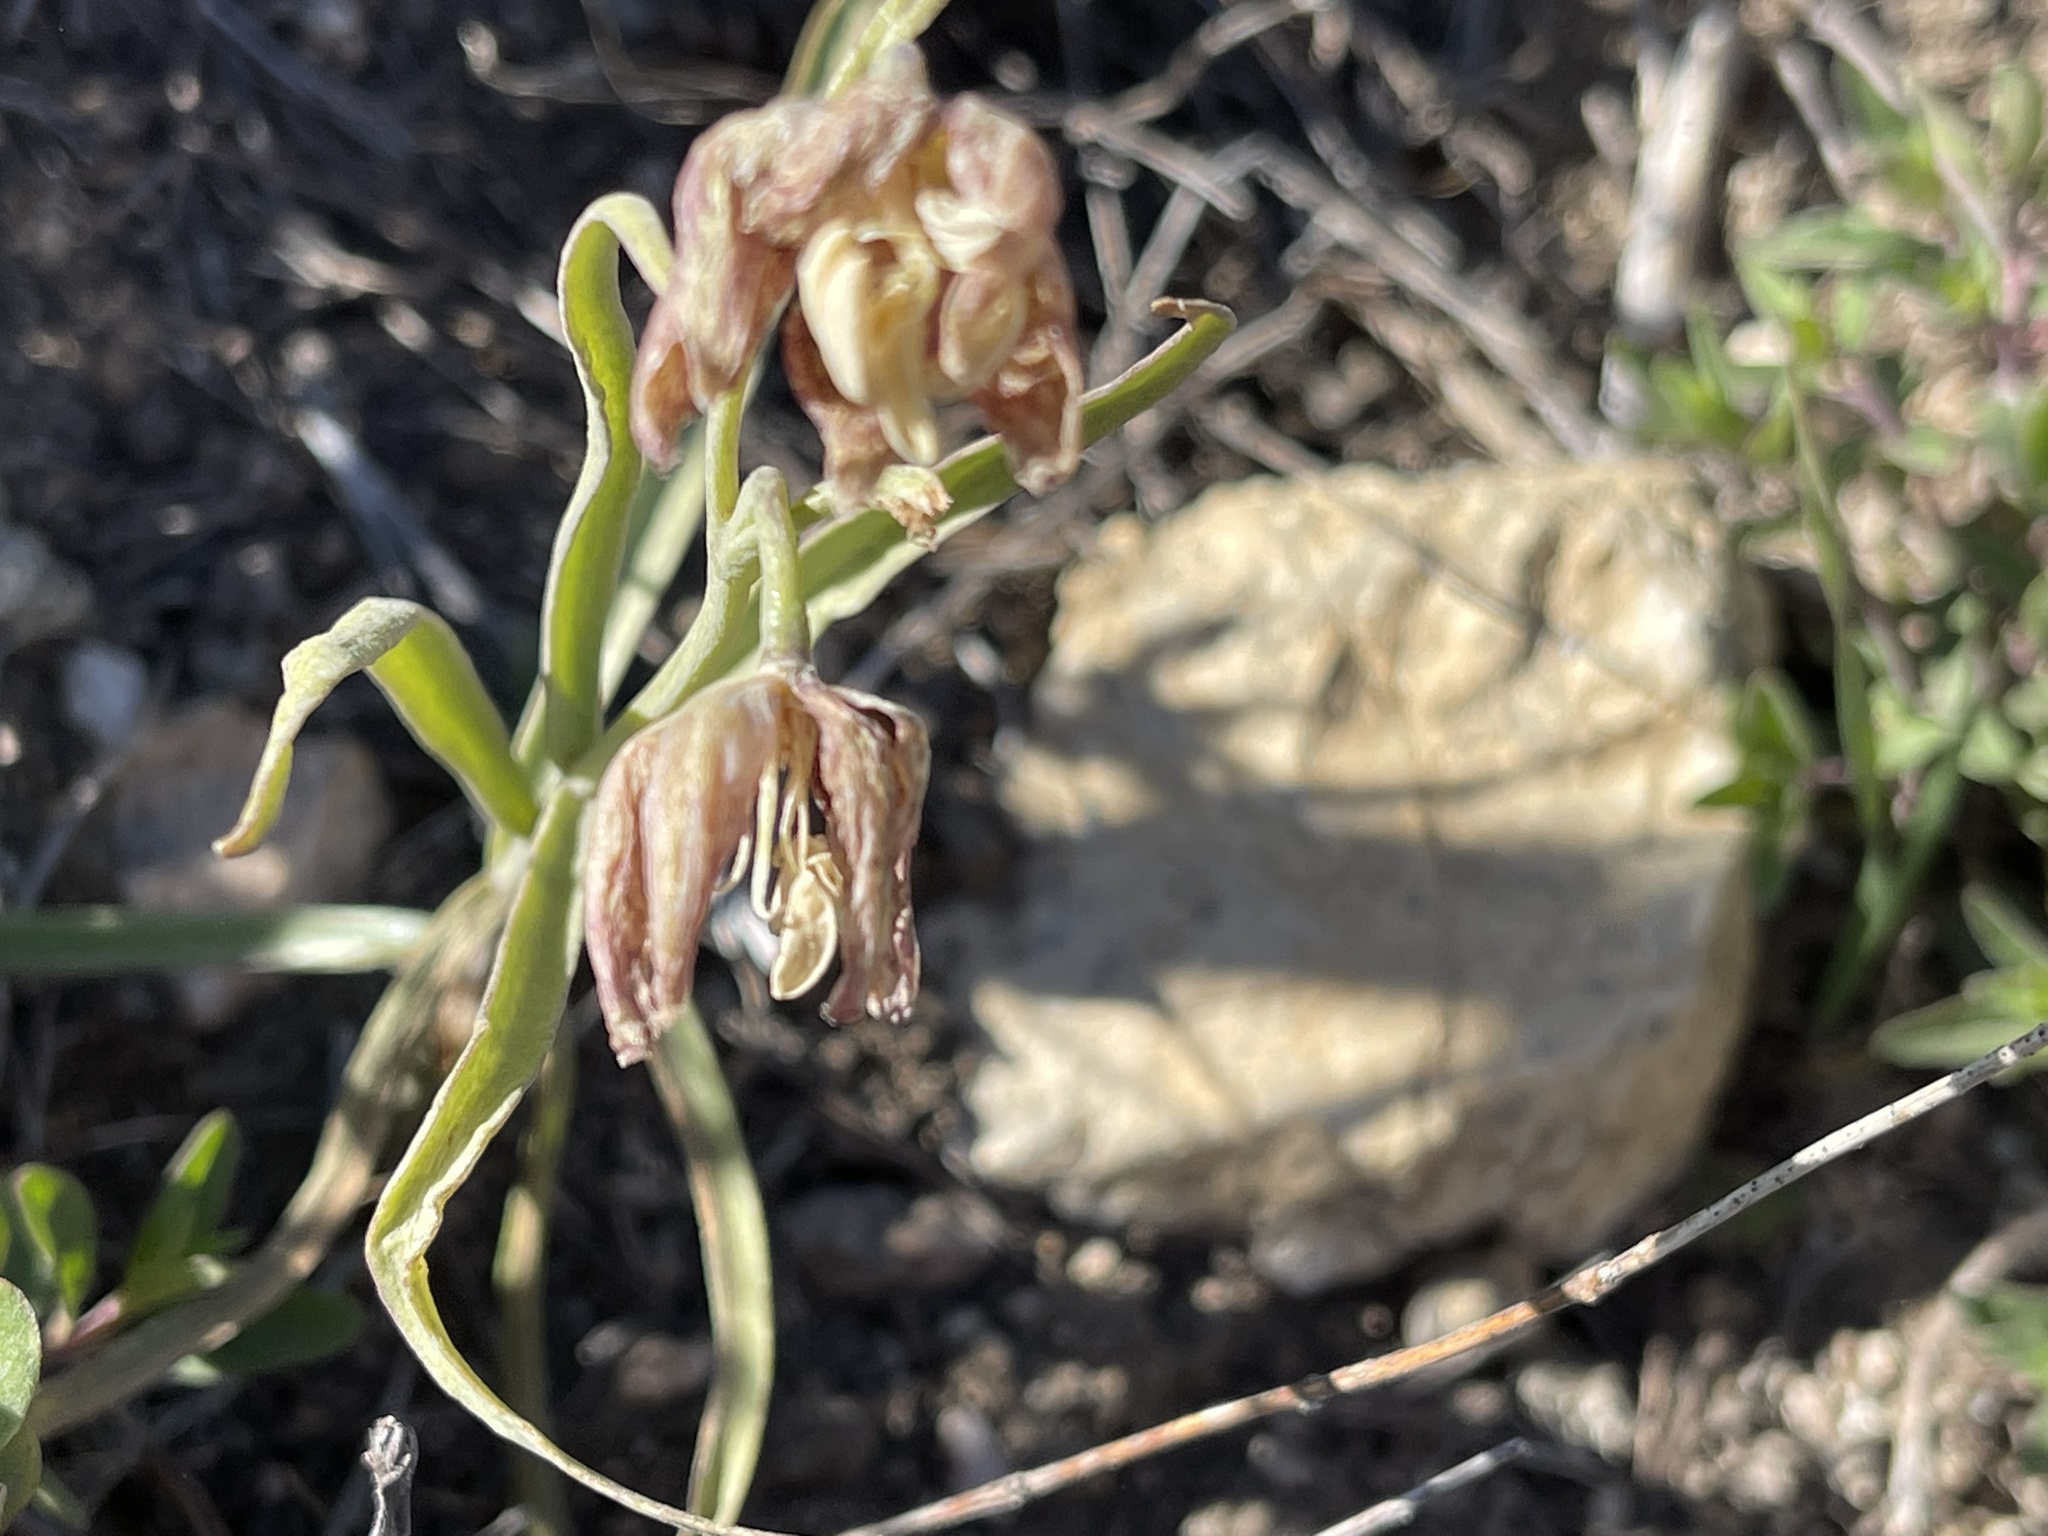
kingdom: Plantae
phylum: Tracheophyta
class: Liliopsida
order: Liliales
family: Liliaceae
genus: Fritillaria
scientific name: Fritillaria atropurpurea
